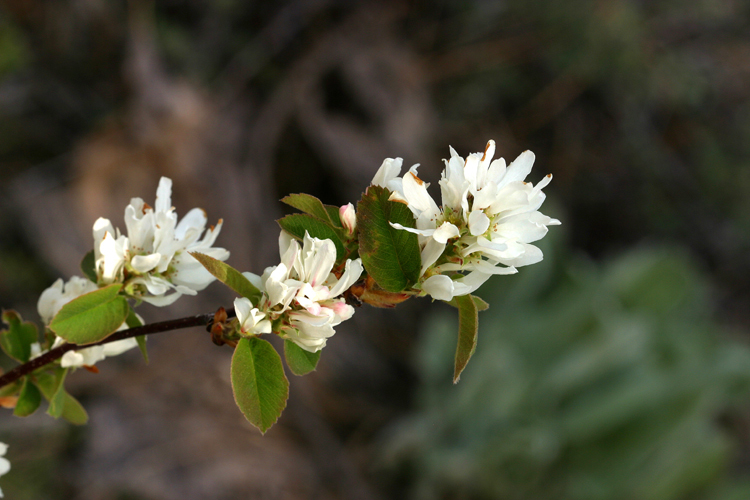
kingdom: Plantae
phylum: Tracheophyta
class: Magnoliopsida
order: Rosales
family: Rosaceae
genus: Amelanchier
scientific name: Amelanchier utahensis
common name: Utah serviceberry
